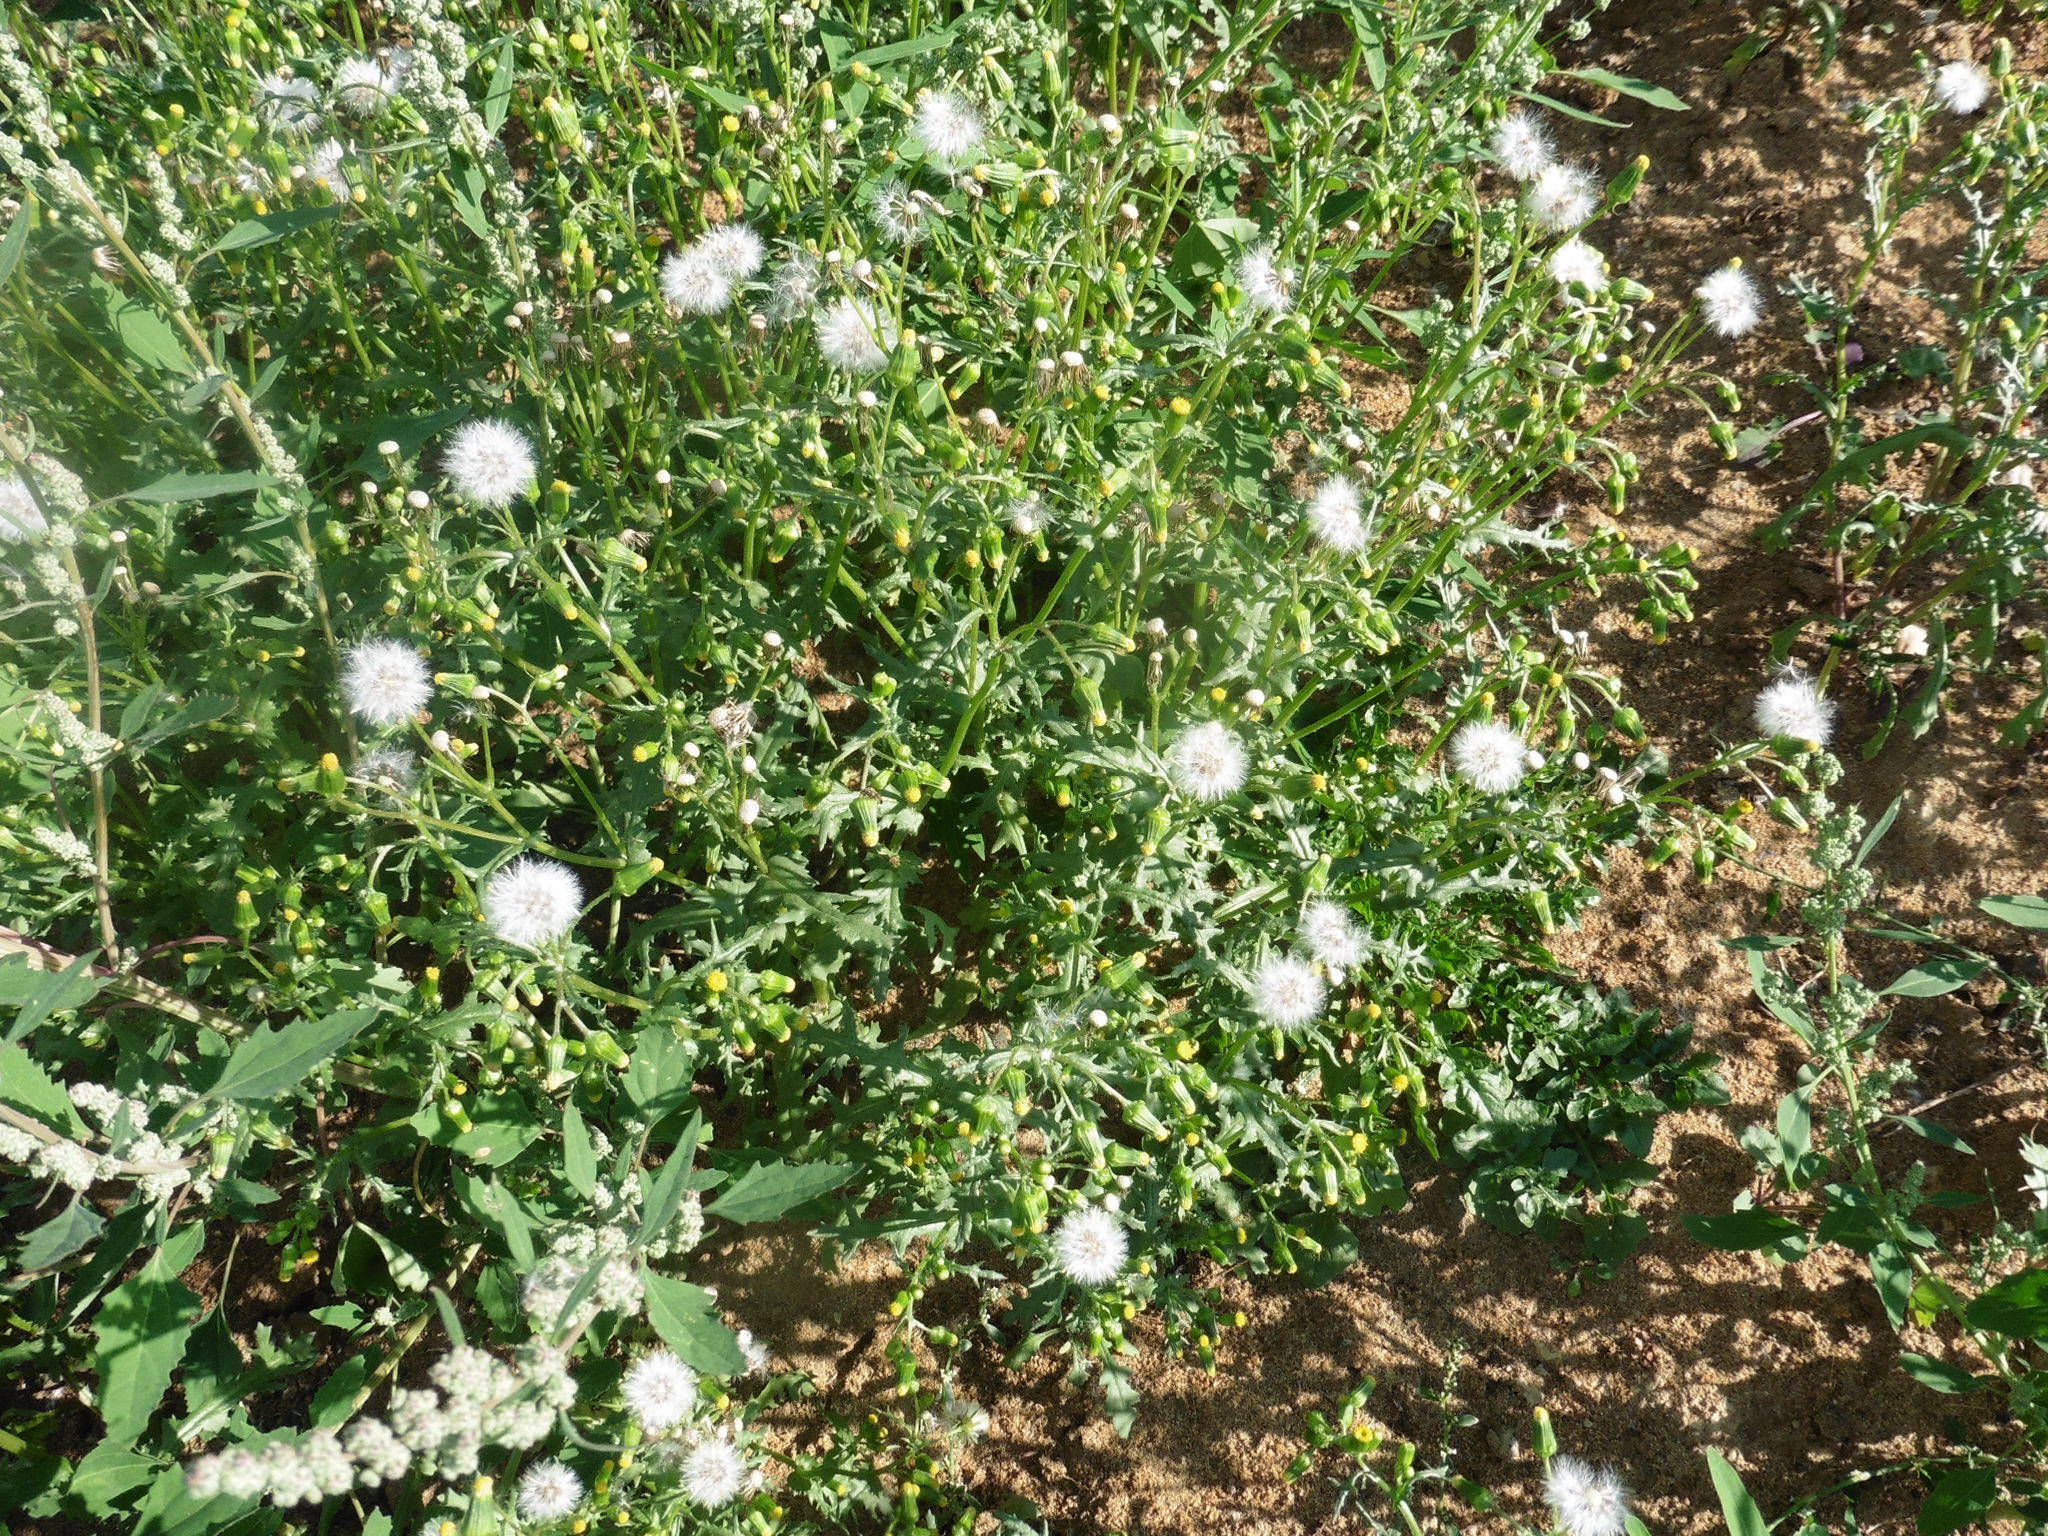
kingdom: Plantae
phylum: Tracheophyta
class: Magnoliopsida
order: Asterales
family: Asteraceae
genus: Senecio
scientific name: Senecio vulgaris
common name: Old-man-in-the-spring
